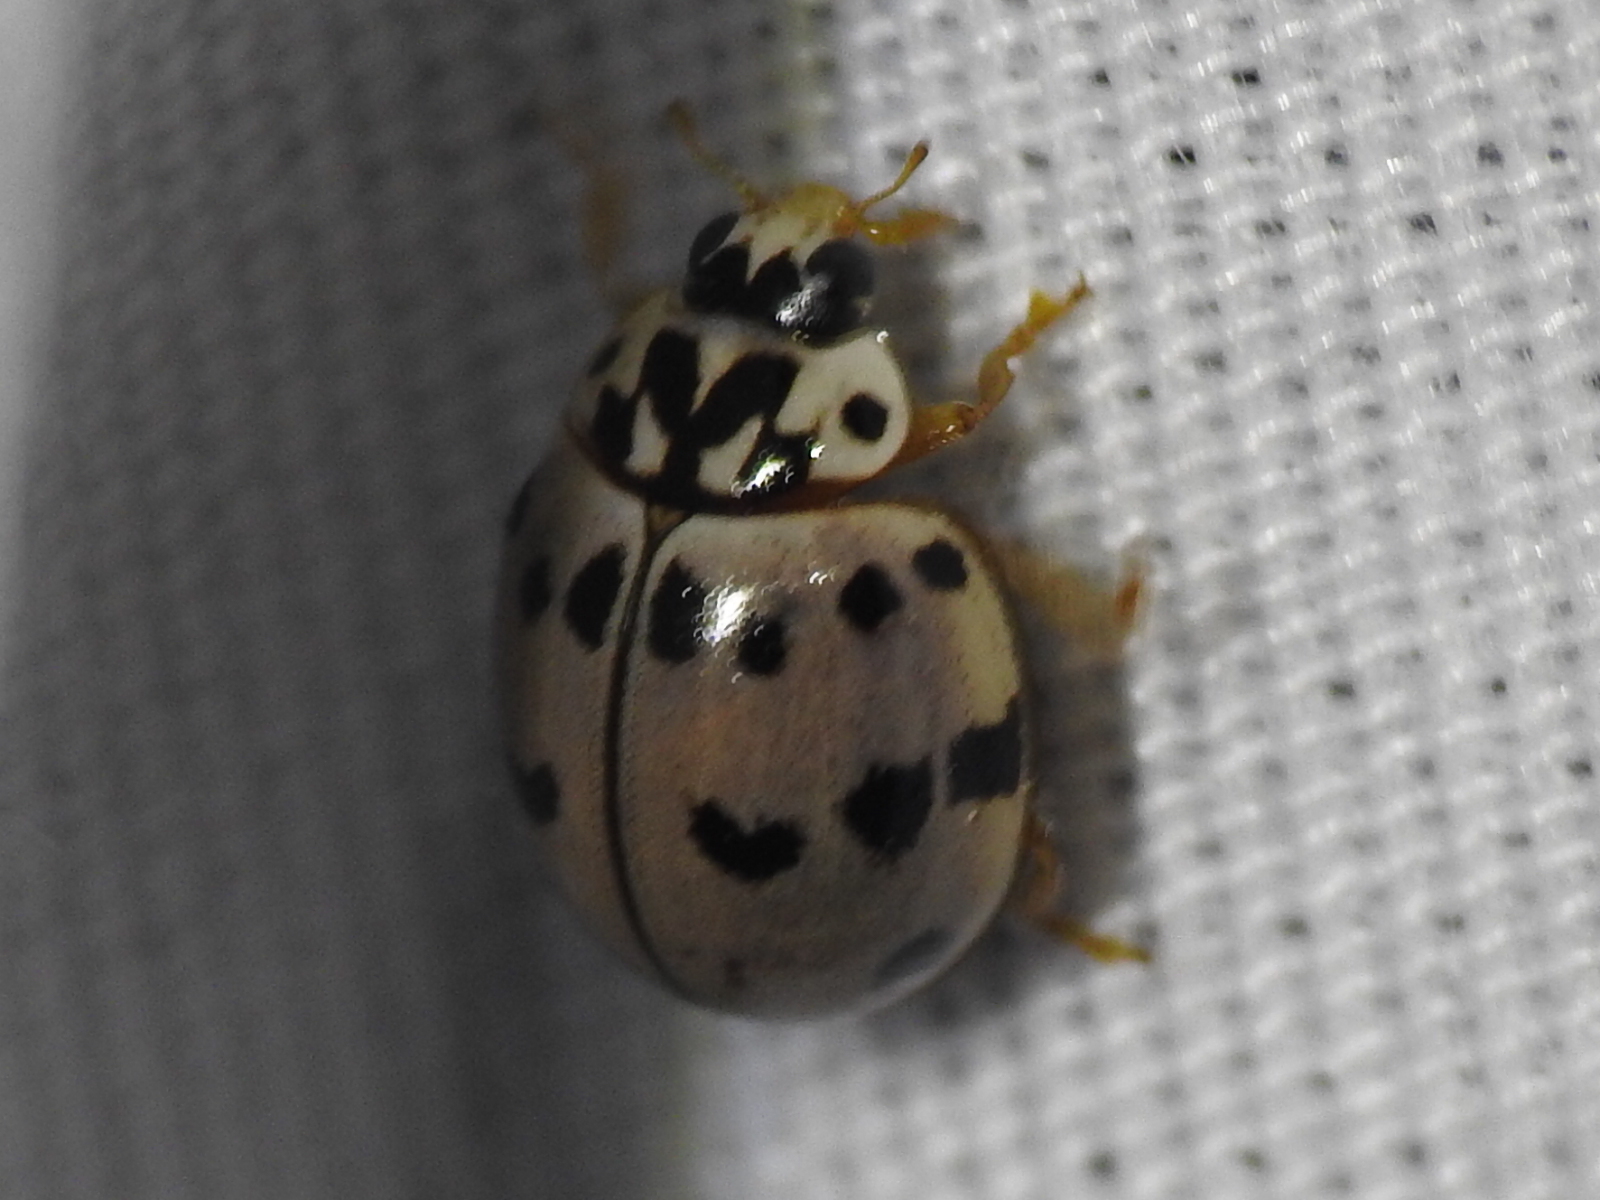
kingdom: Animalia
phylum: Arthropoda
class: Insecta
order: Coleoptera
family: Coccinellidae
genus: Olla
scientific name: Olla v-nigrum
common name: Ashy gray lady beetle
